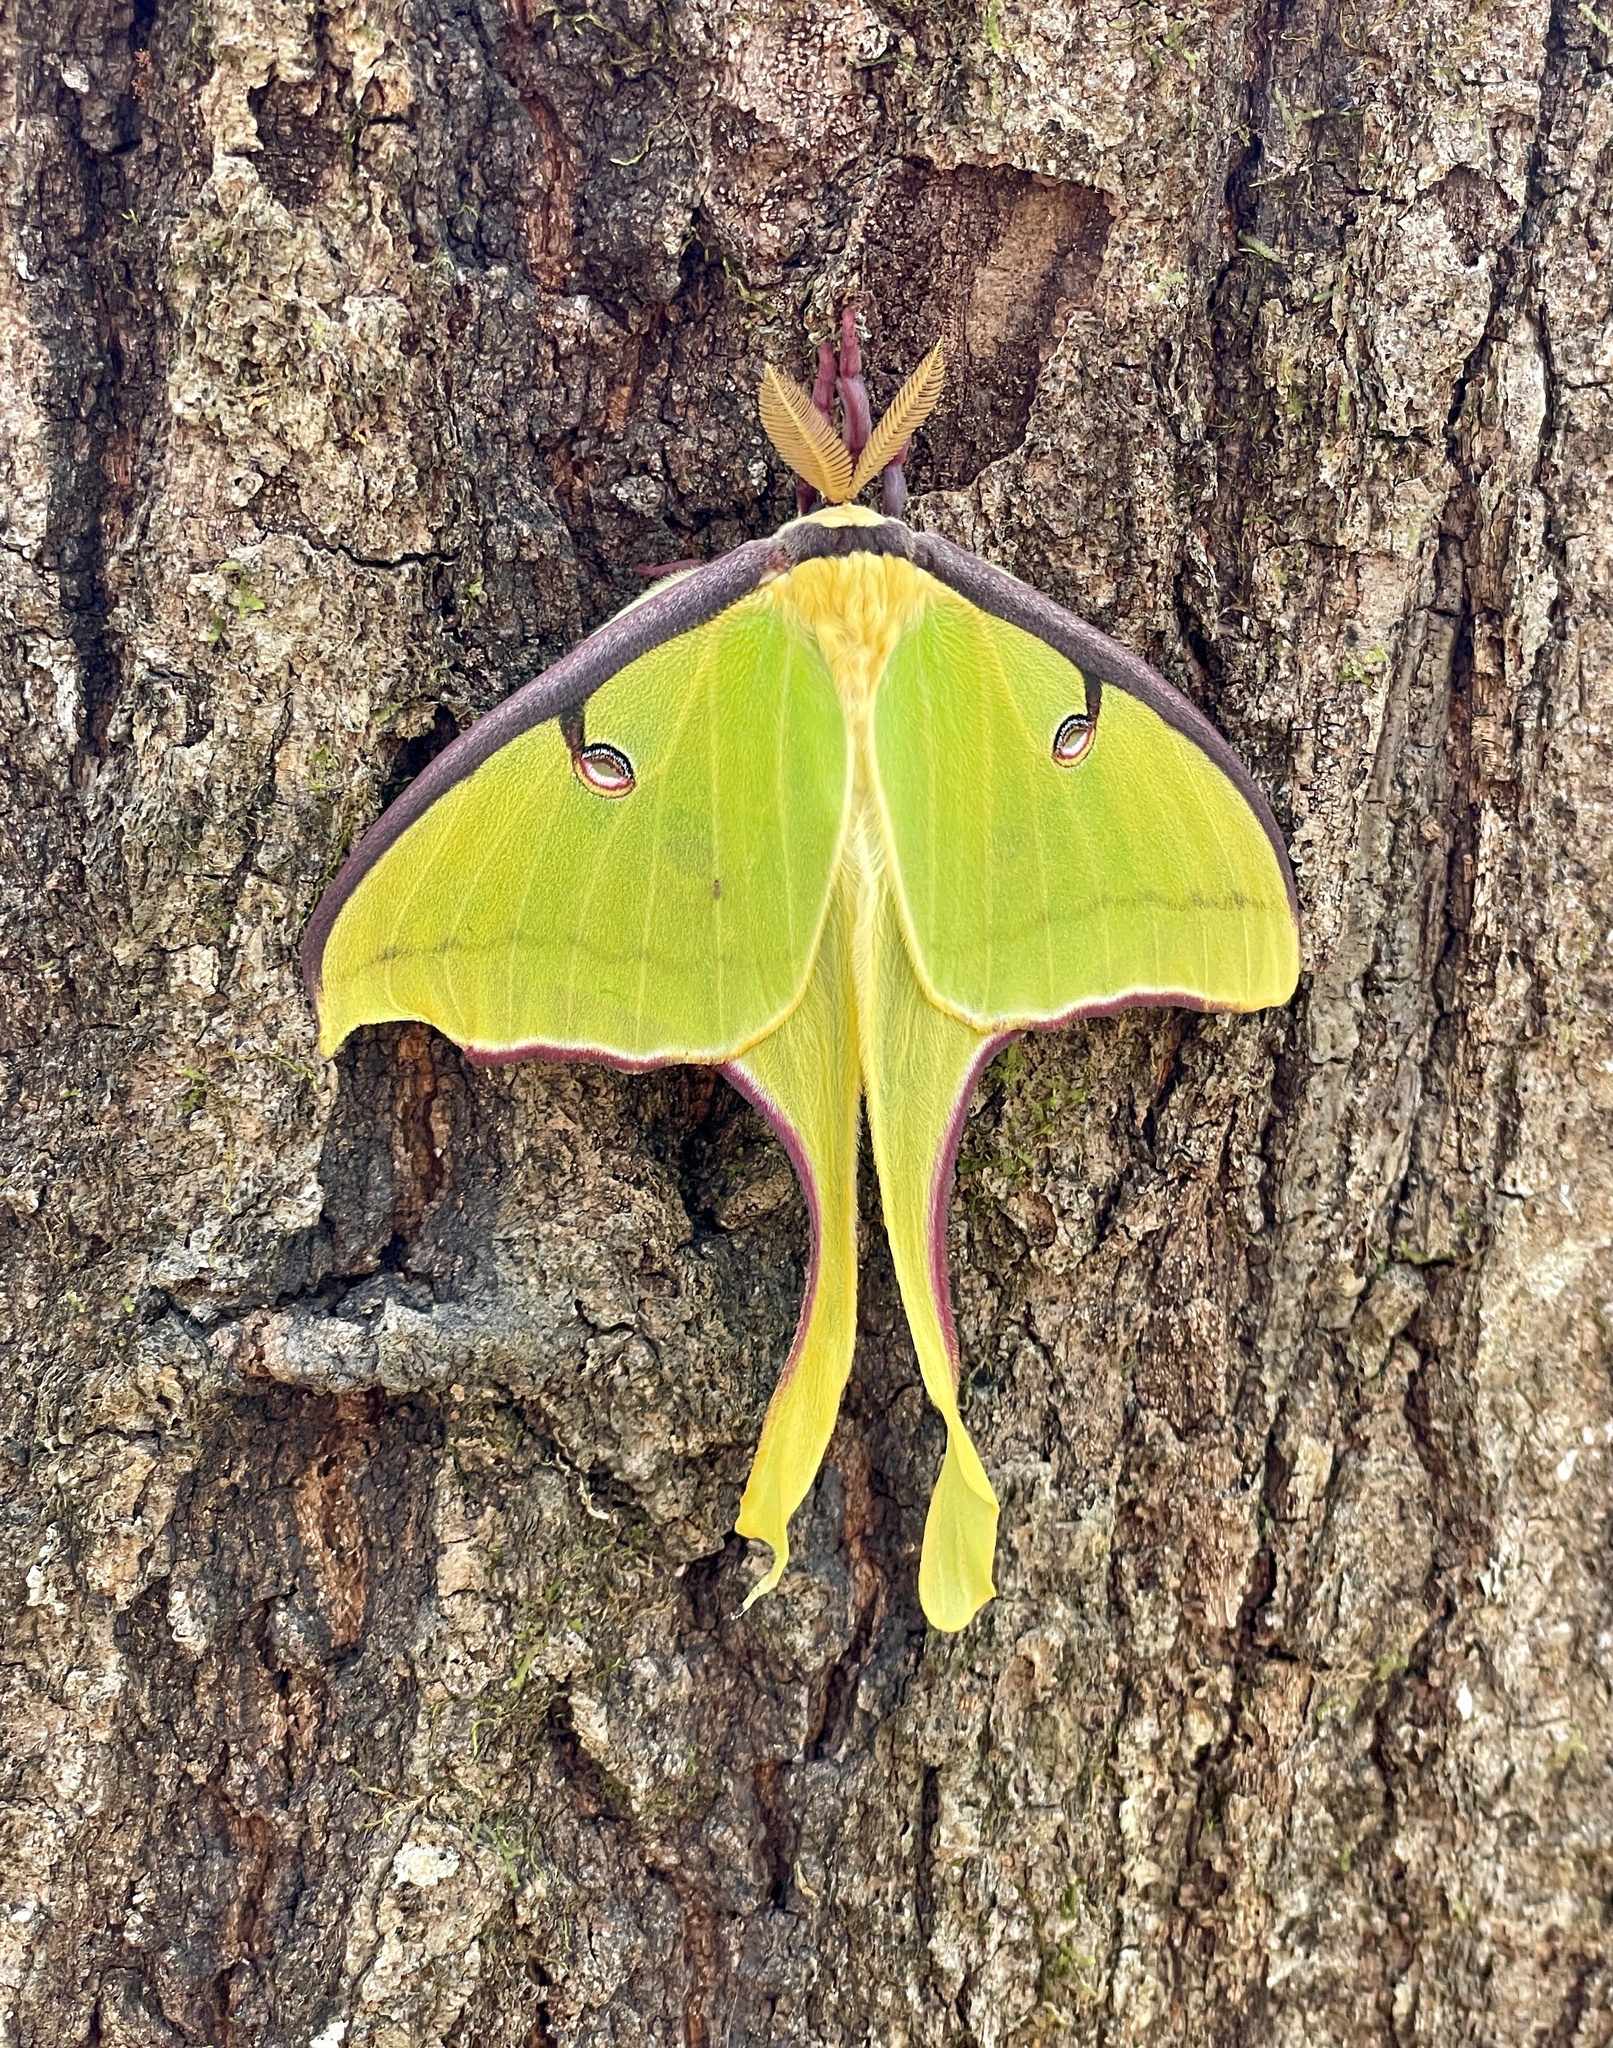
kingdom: Animalia
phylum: Arthropoda
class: Insecta
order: Lepidoptera
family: Saturniidae
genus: Actias
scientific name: Actias luna
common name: Luna moth
